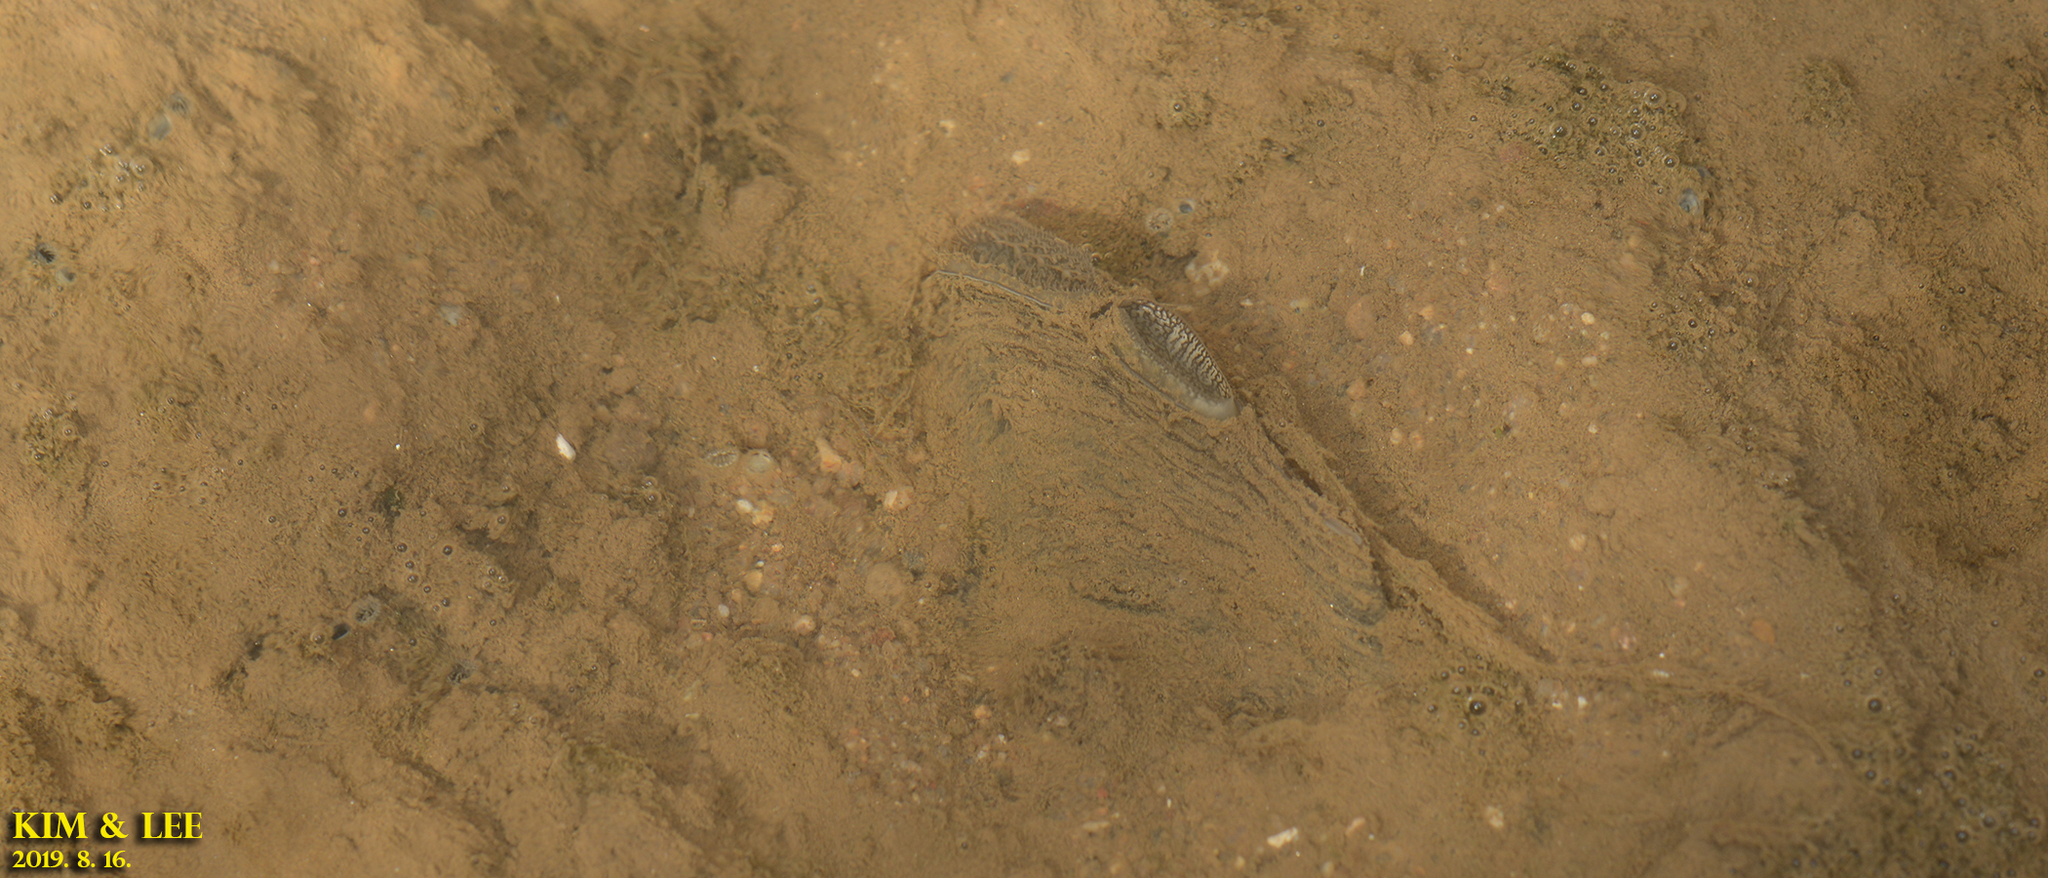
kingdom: Animalia
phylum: Mollusca
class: Bivalvia
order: Unionida
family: Unionidae
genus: Sinanodonta
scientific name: Sinanodonta lauta
